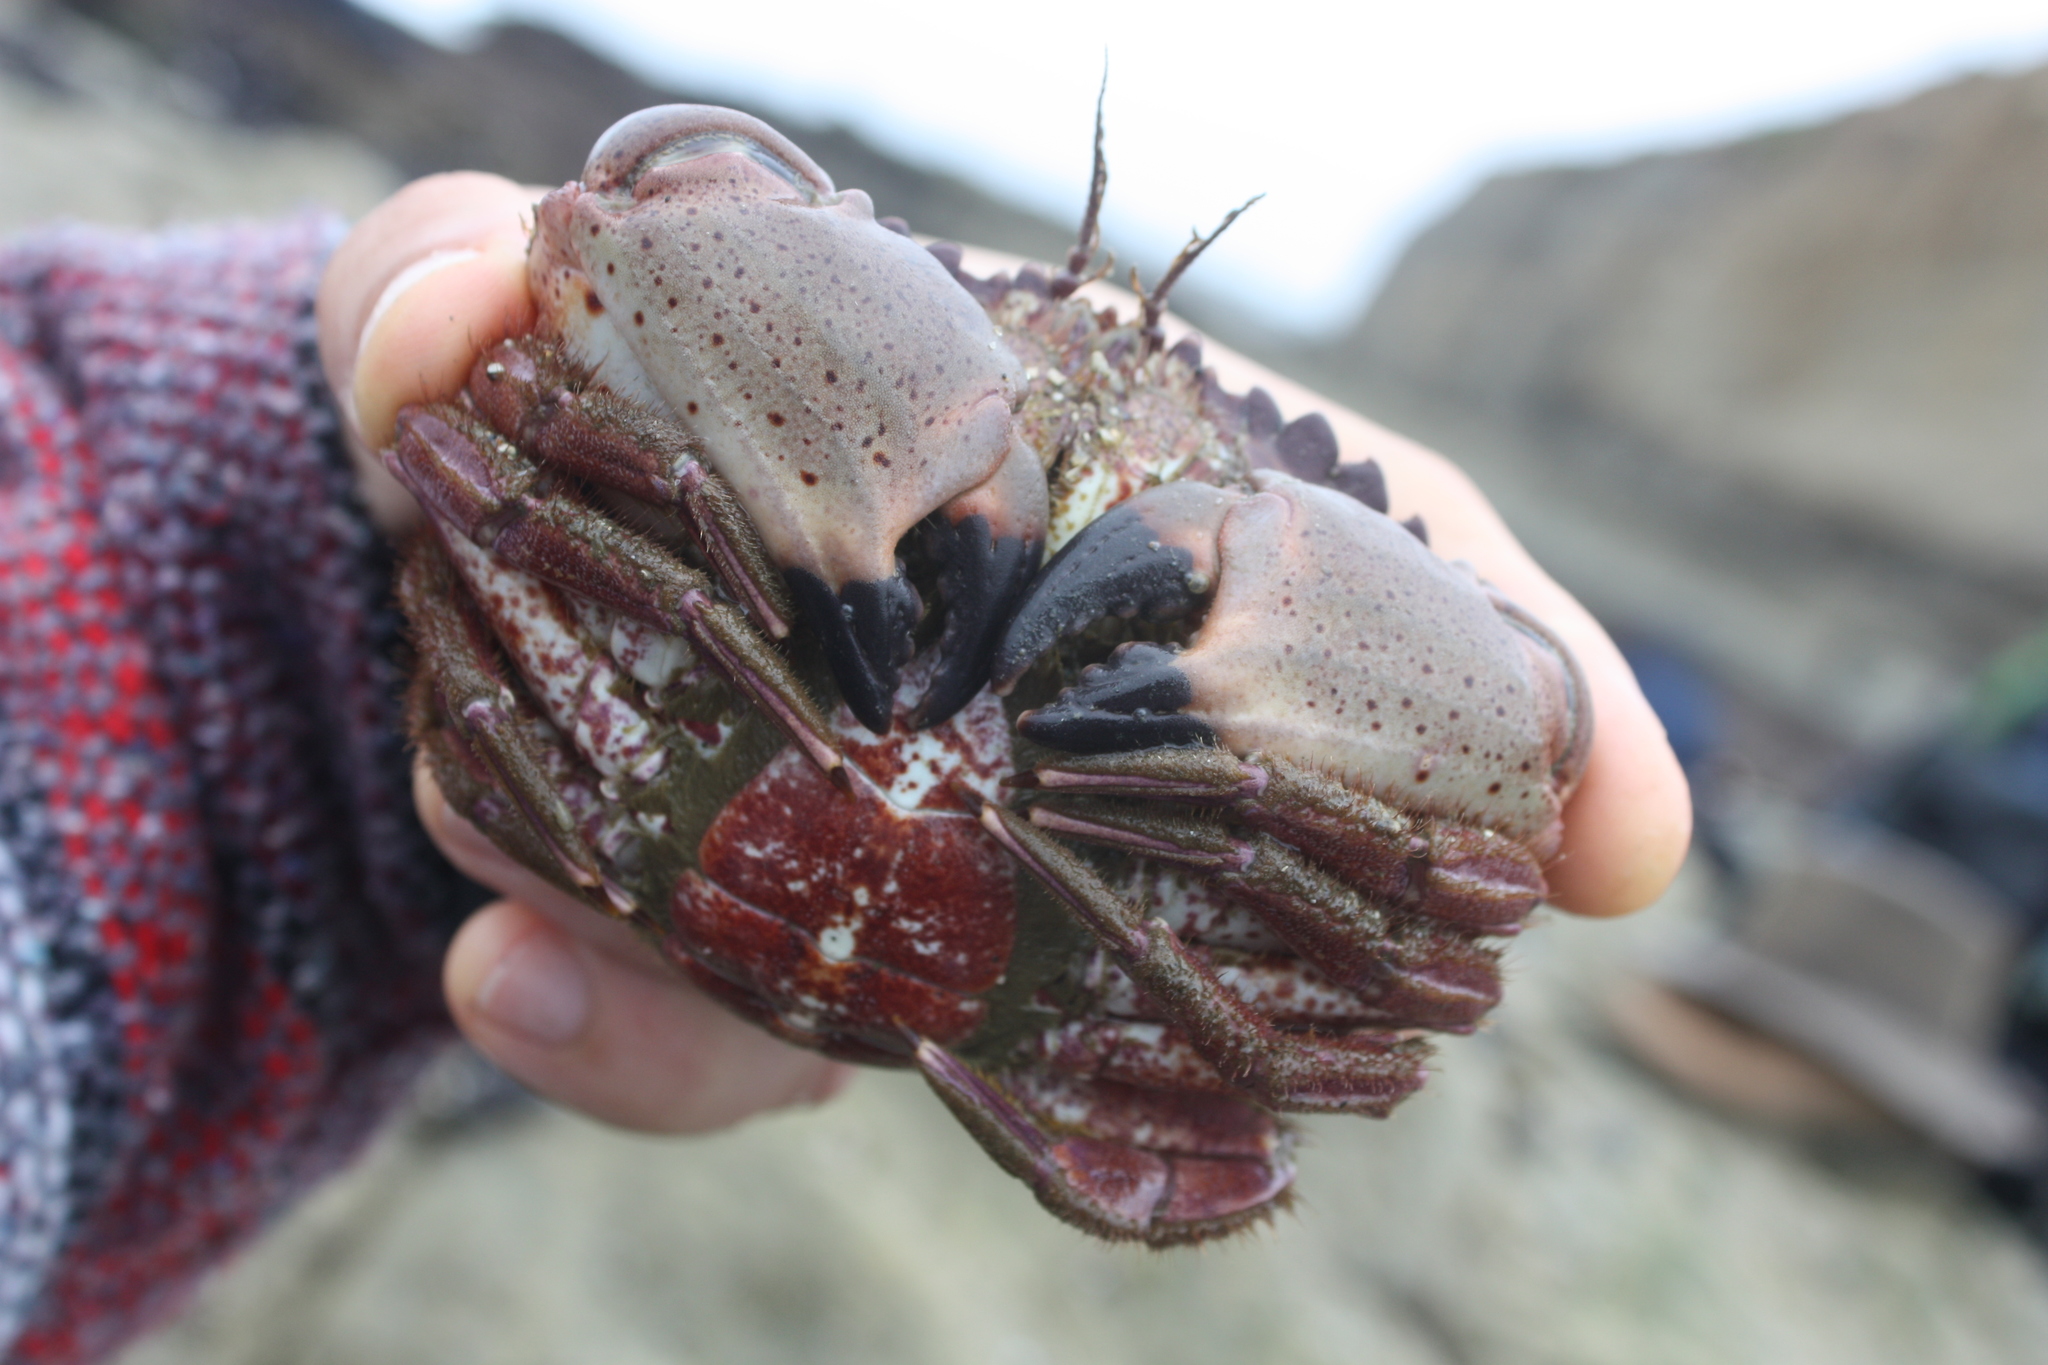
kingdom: Animalia
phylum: Arthropoda
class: Malacostraca
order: Decapoda
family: Cancridae
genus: Romaleon
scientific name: Romaleon antennarium
